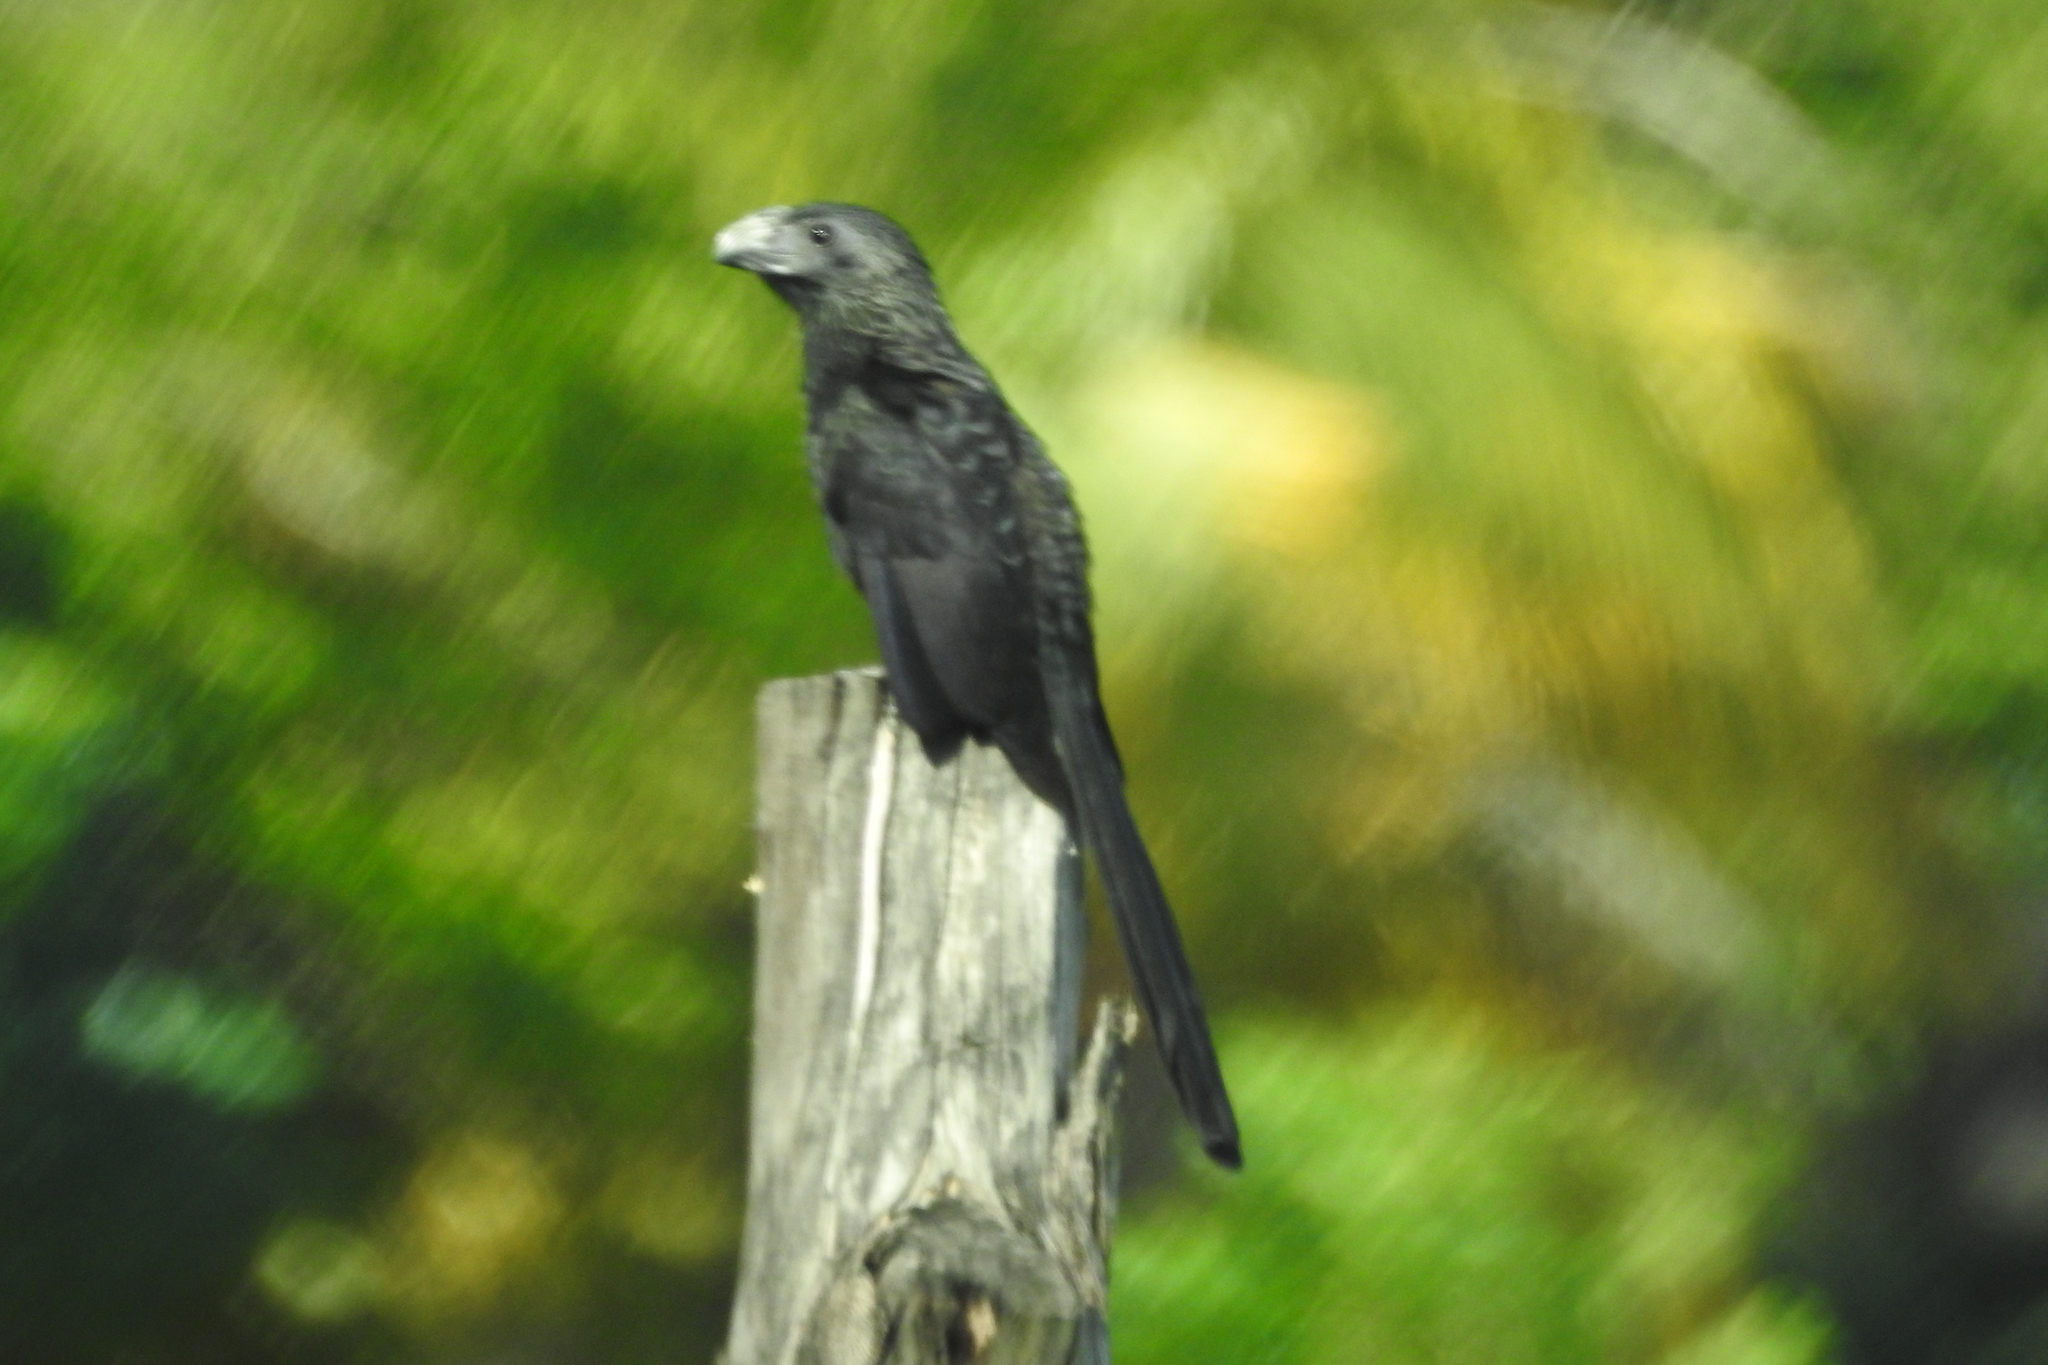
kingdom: Animalia
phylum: Chordata
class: Aves
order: Cuculiformes
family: Cuculidae
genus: Crotophaga
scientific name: Crotophaga sulcirostris
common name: Groove-billed ani
